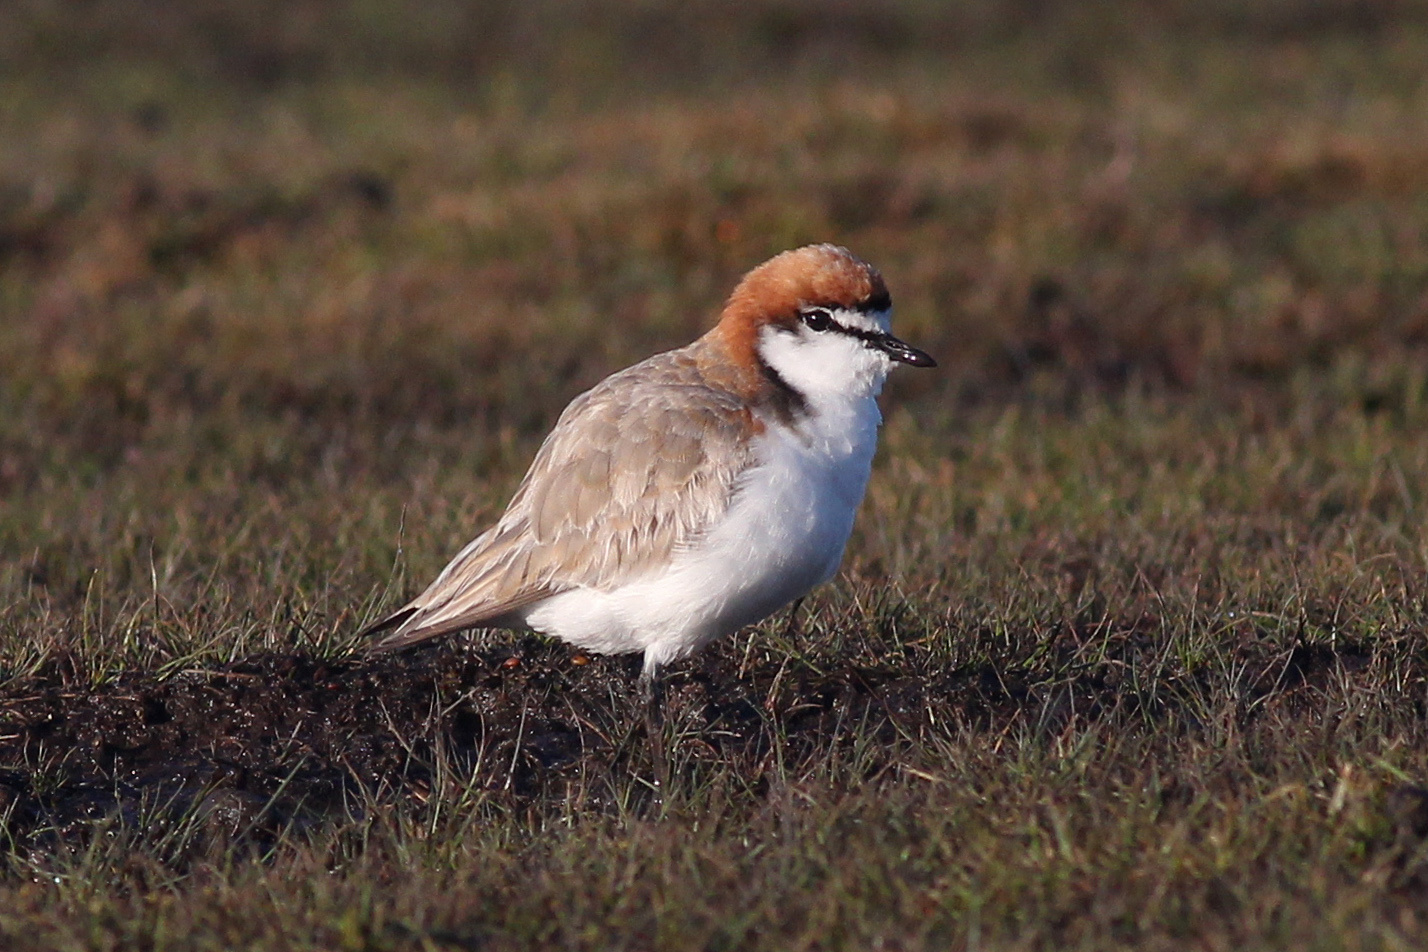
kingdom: Animalia
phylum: Chordata
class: Aves
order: Charadriiformes
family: Charadriidae
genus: Anarhynchus
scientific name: Anarhynchus
